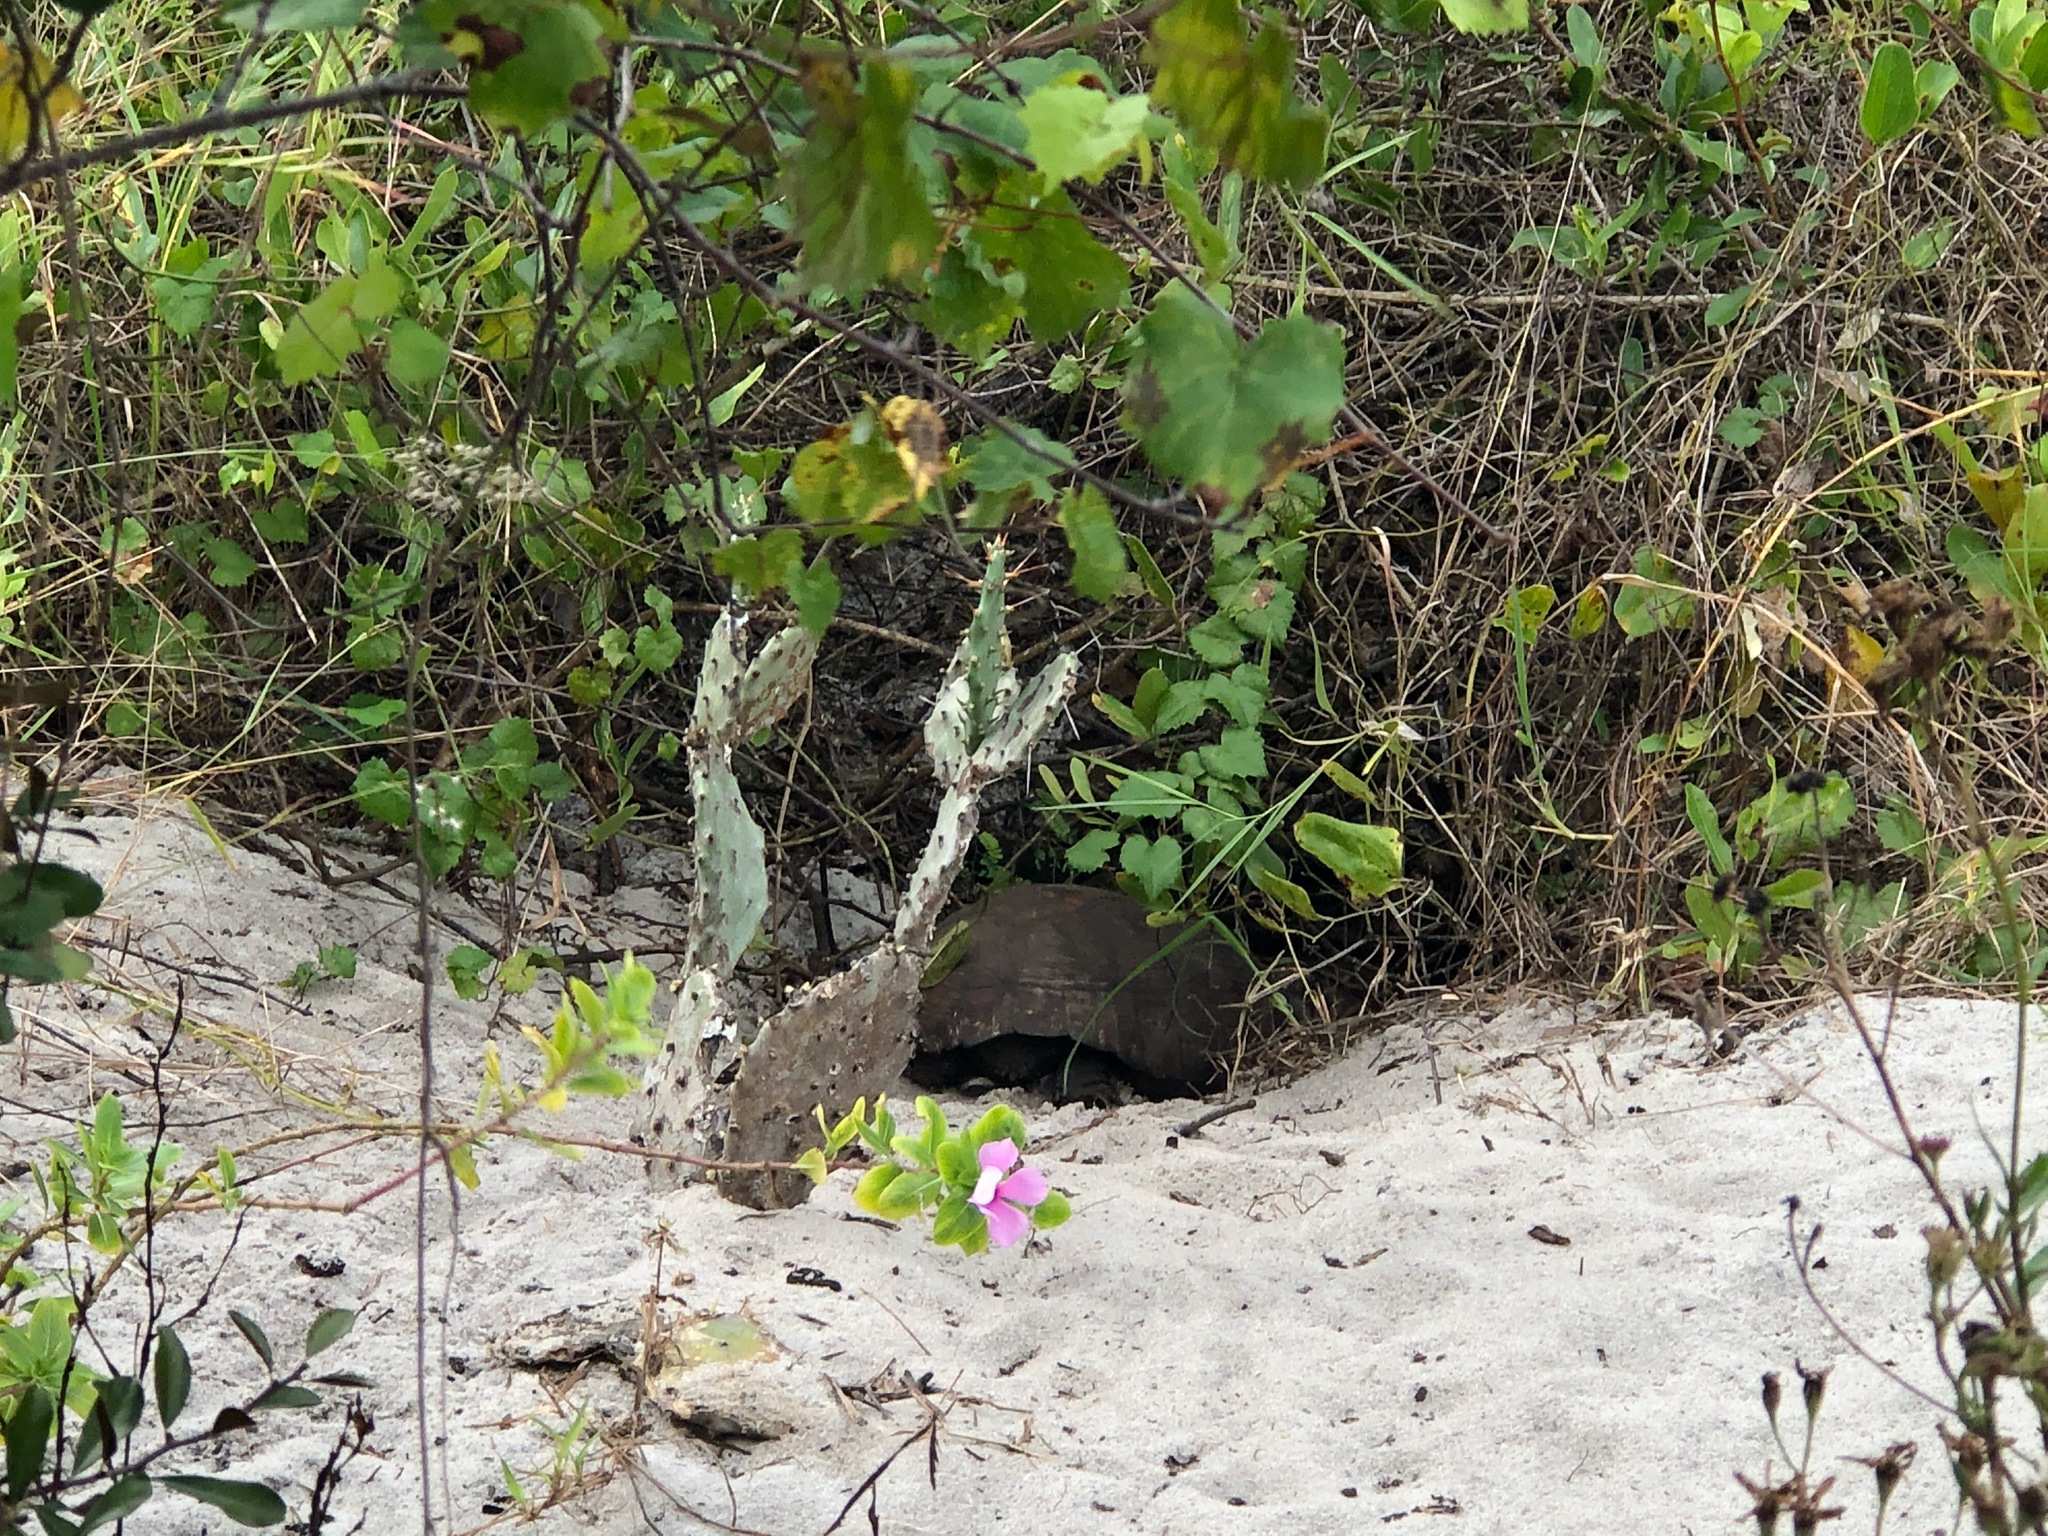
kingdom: Animalia
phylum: Chordata
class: Testudines
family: Testudinidae
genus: Gopherus
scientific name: Gopherus polyphemus
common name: Florida gopher tortoise
